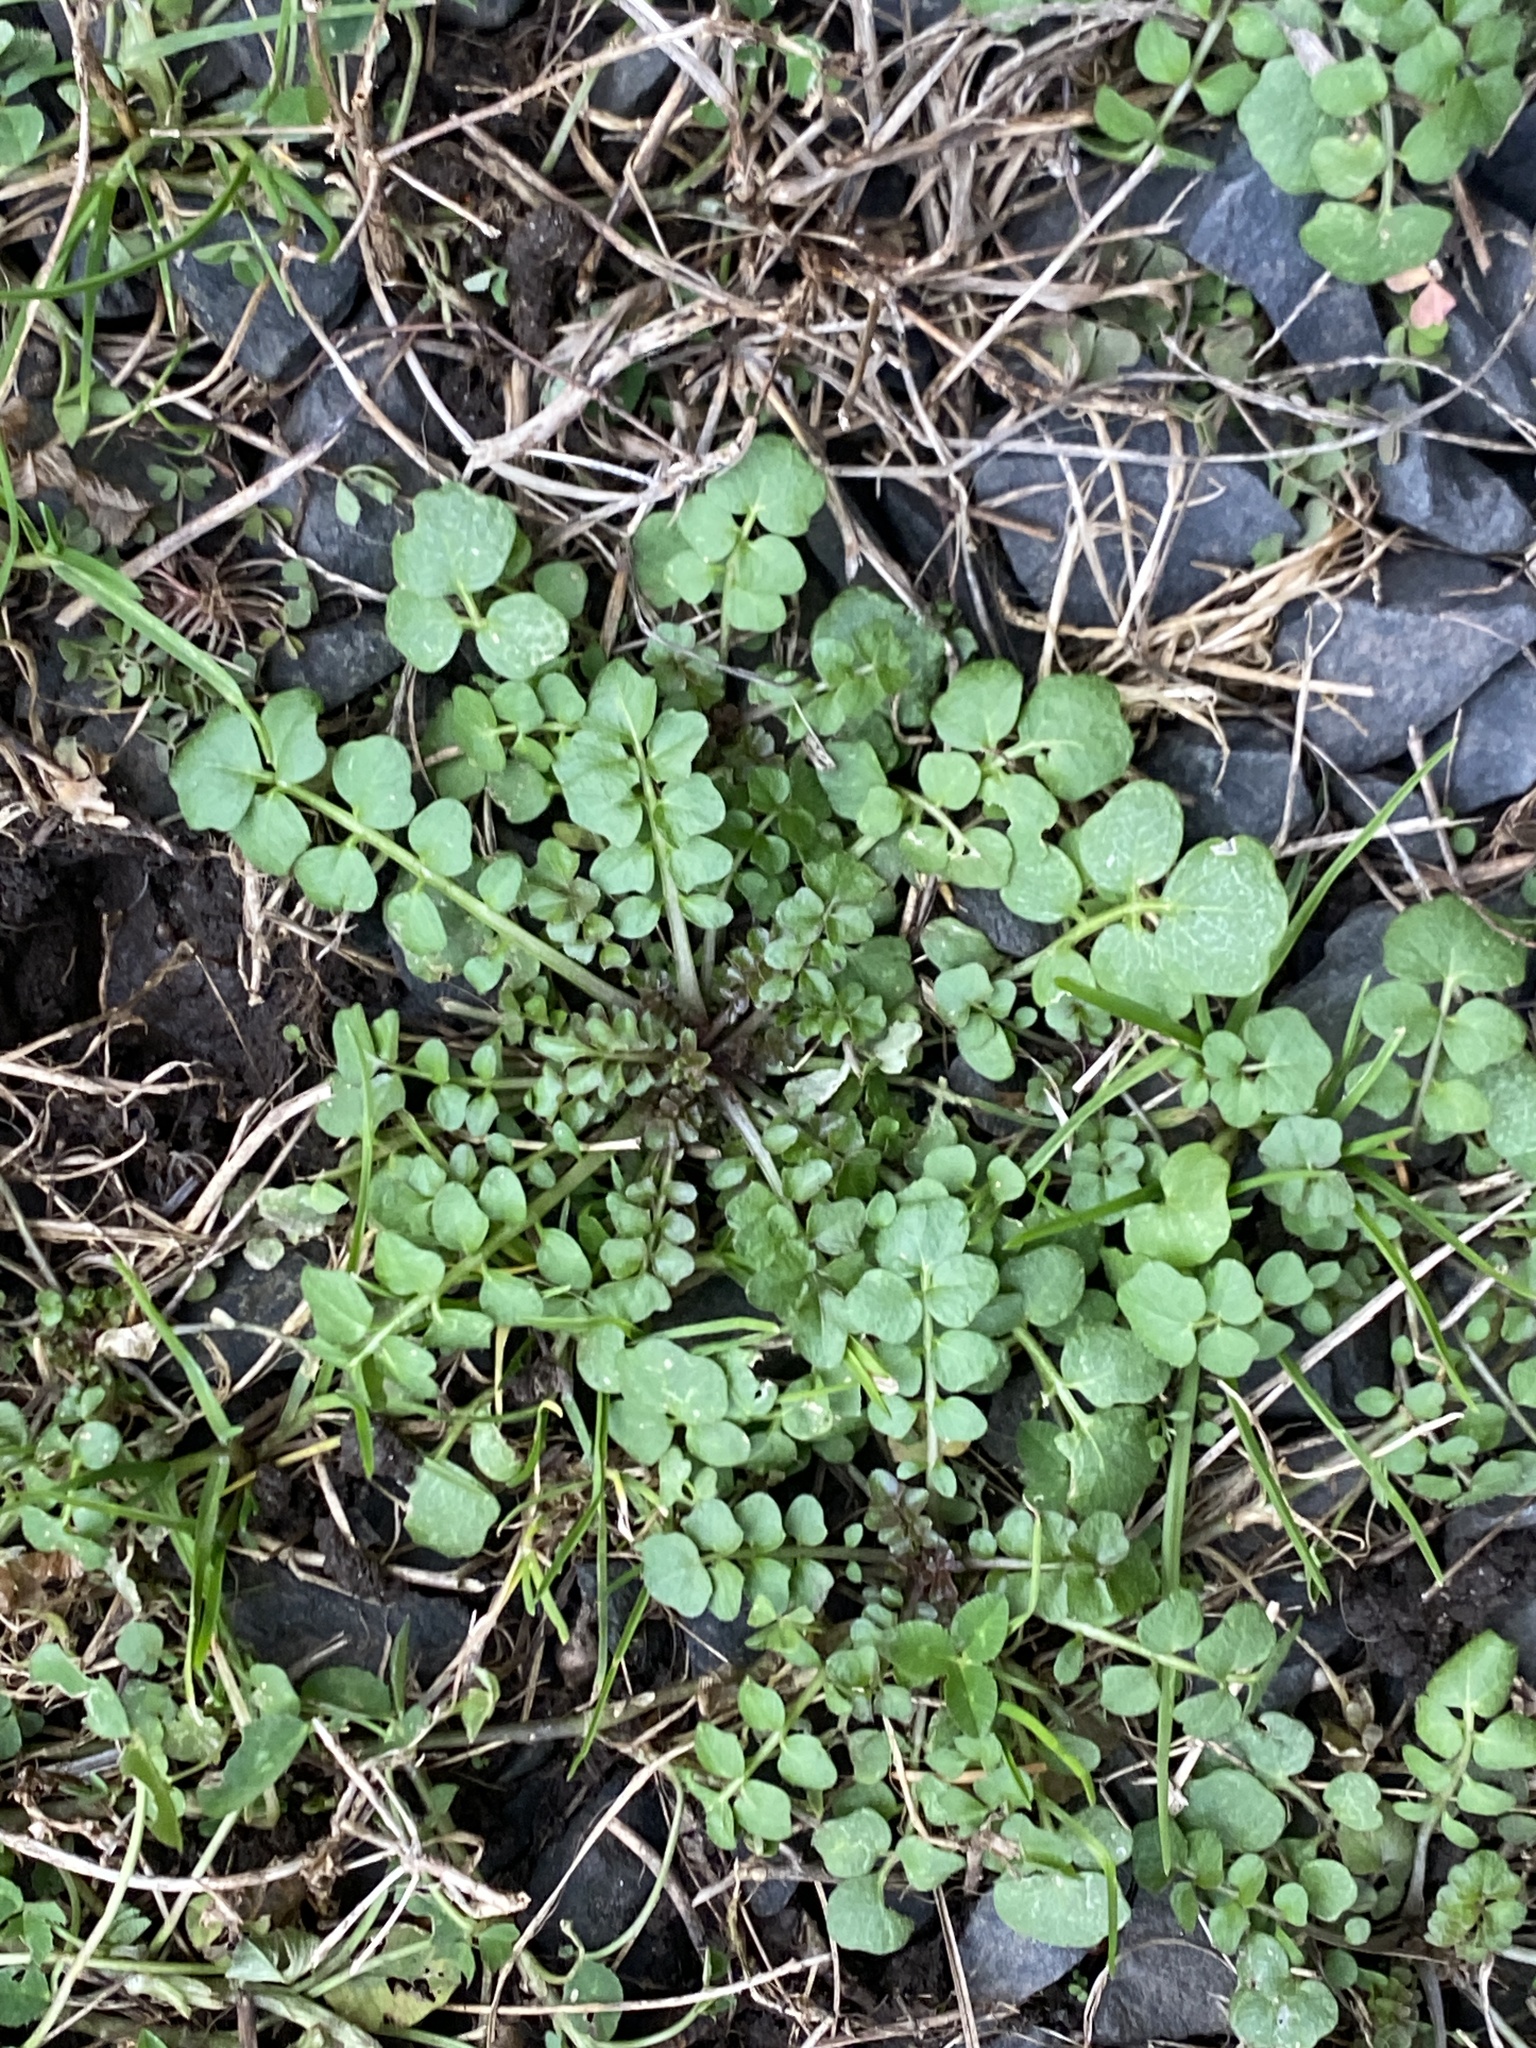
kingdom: Plantae
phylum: Tracheophyta
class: Magnoliopsida
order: Brassicales
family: Brassicaceae
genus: Cardamine
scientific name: Cardamine hirsuta
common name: Hairy bittercress
